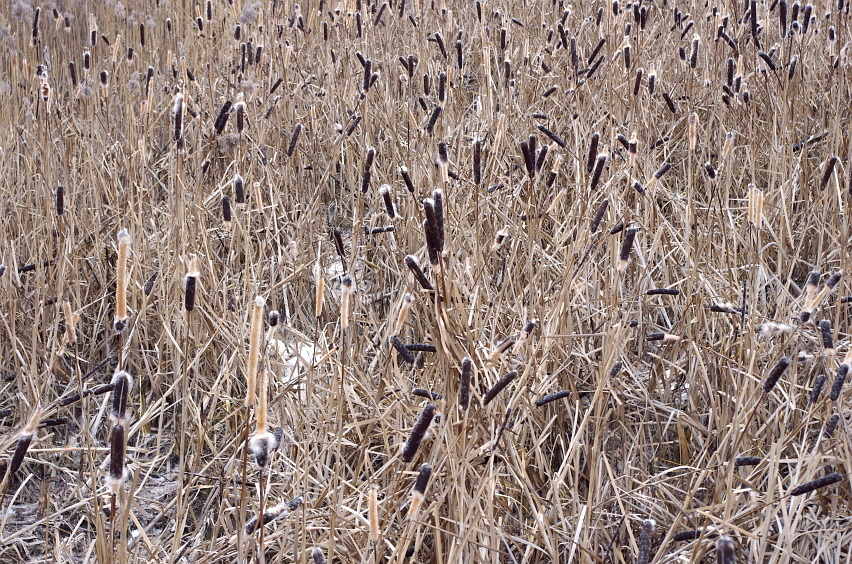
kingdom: Plantae
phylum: Tracheophyta
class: Liliopsida
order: Poales
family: Typhaceae
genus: Typha
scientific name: Typha latifolia
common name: Broadleaf cattail
